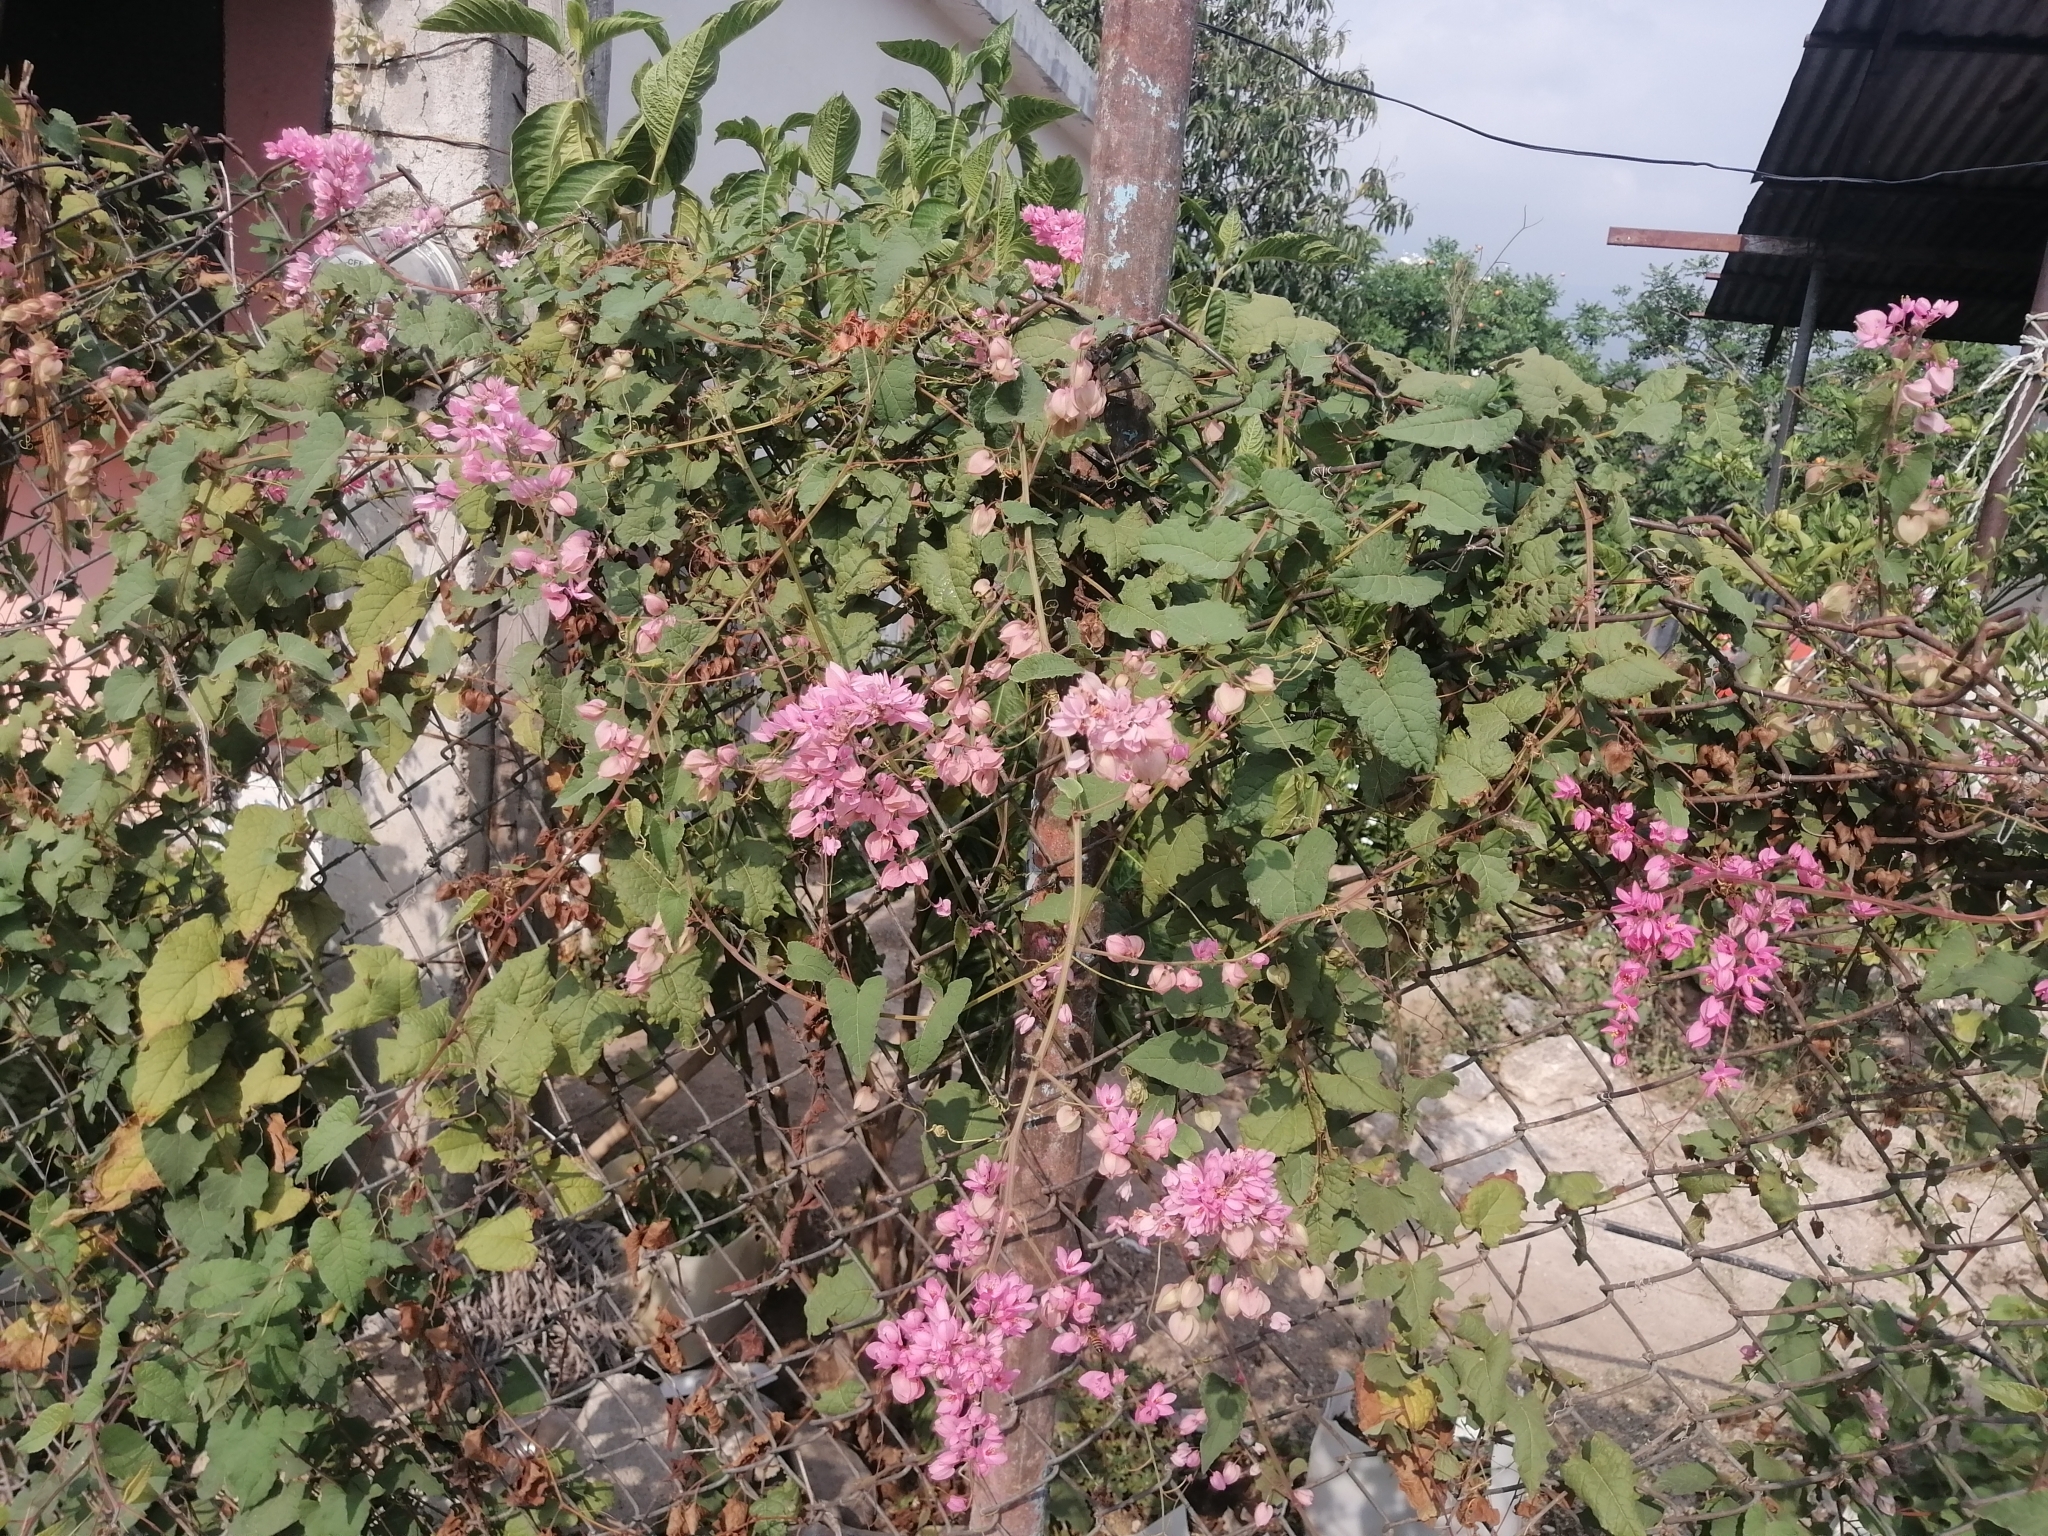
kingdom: Plantae
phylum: Tracheophyta
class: Magnoliopsida
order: Caryophyllales
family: Polygonaceae
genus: Antigonon
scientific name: Antigonon leptopus
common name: Coral vine
